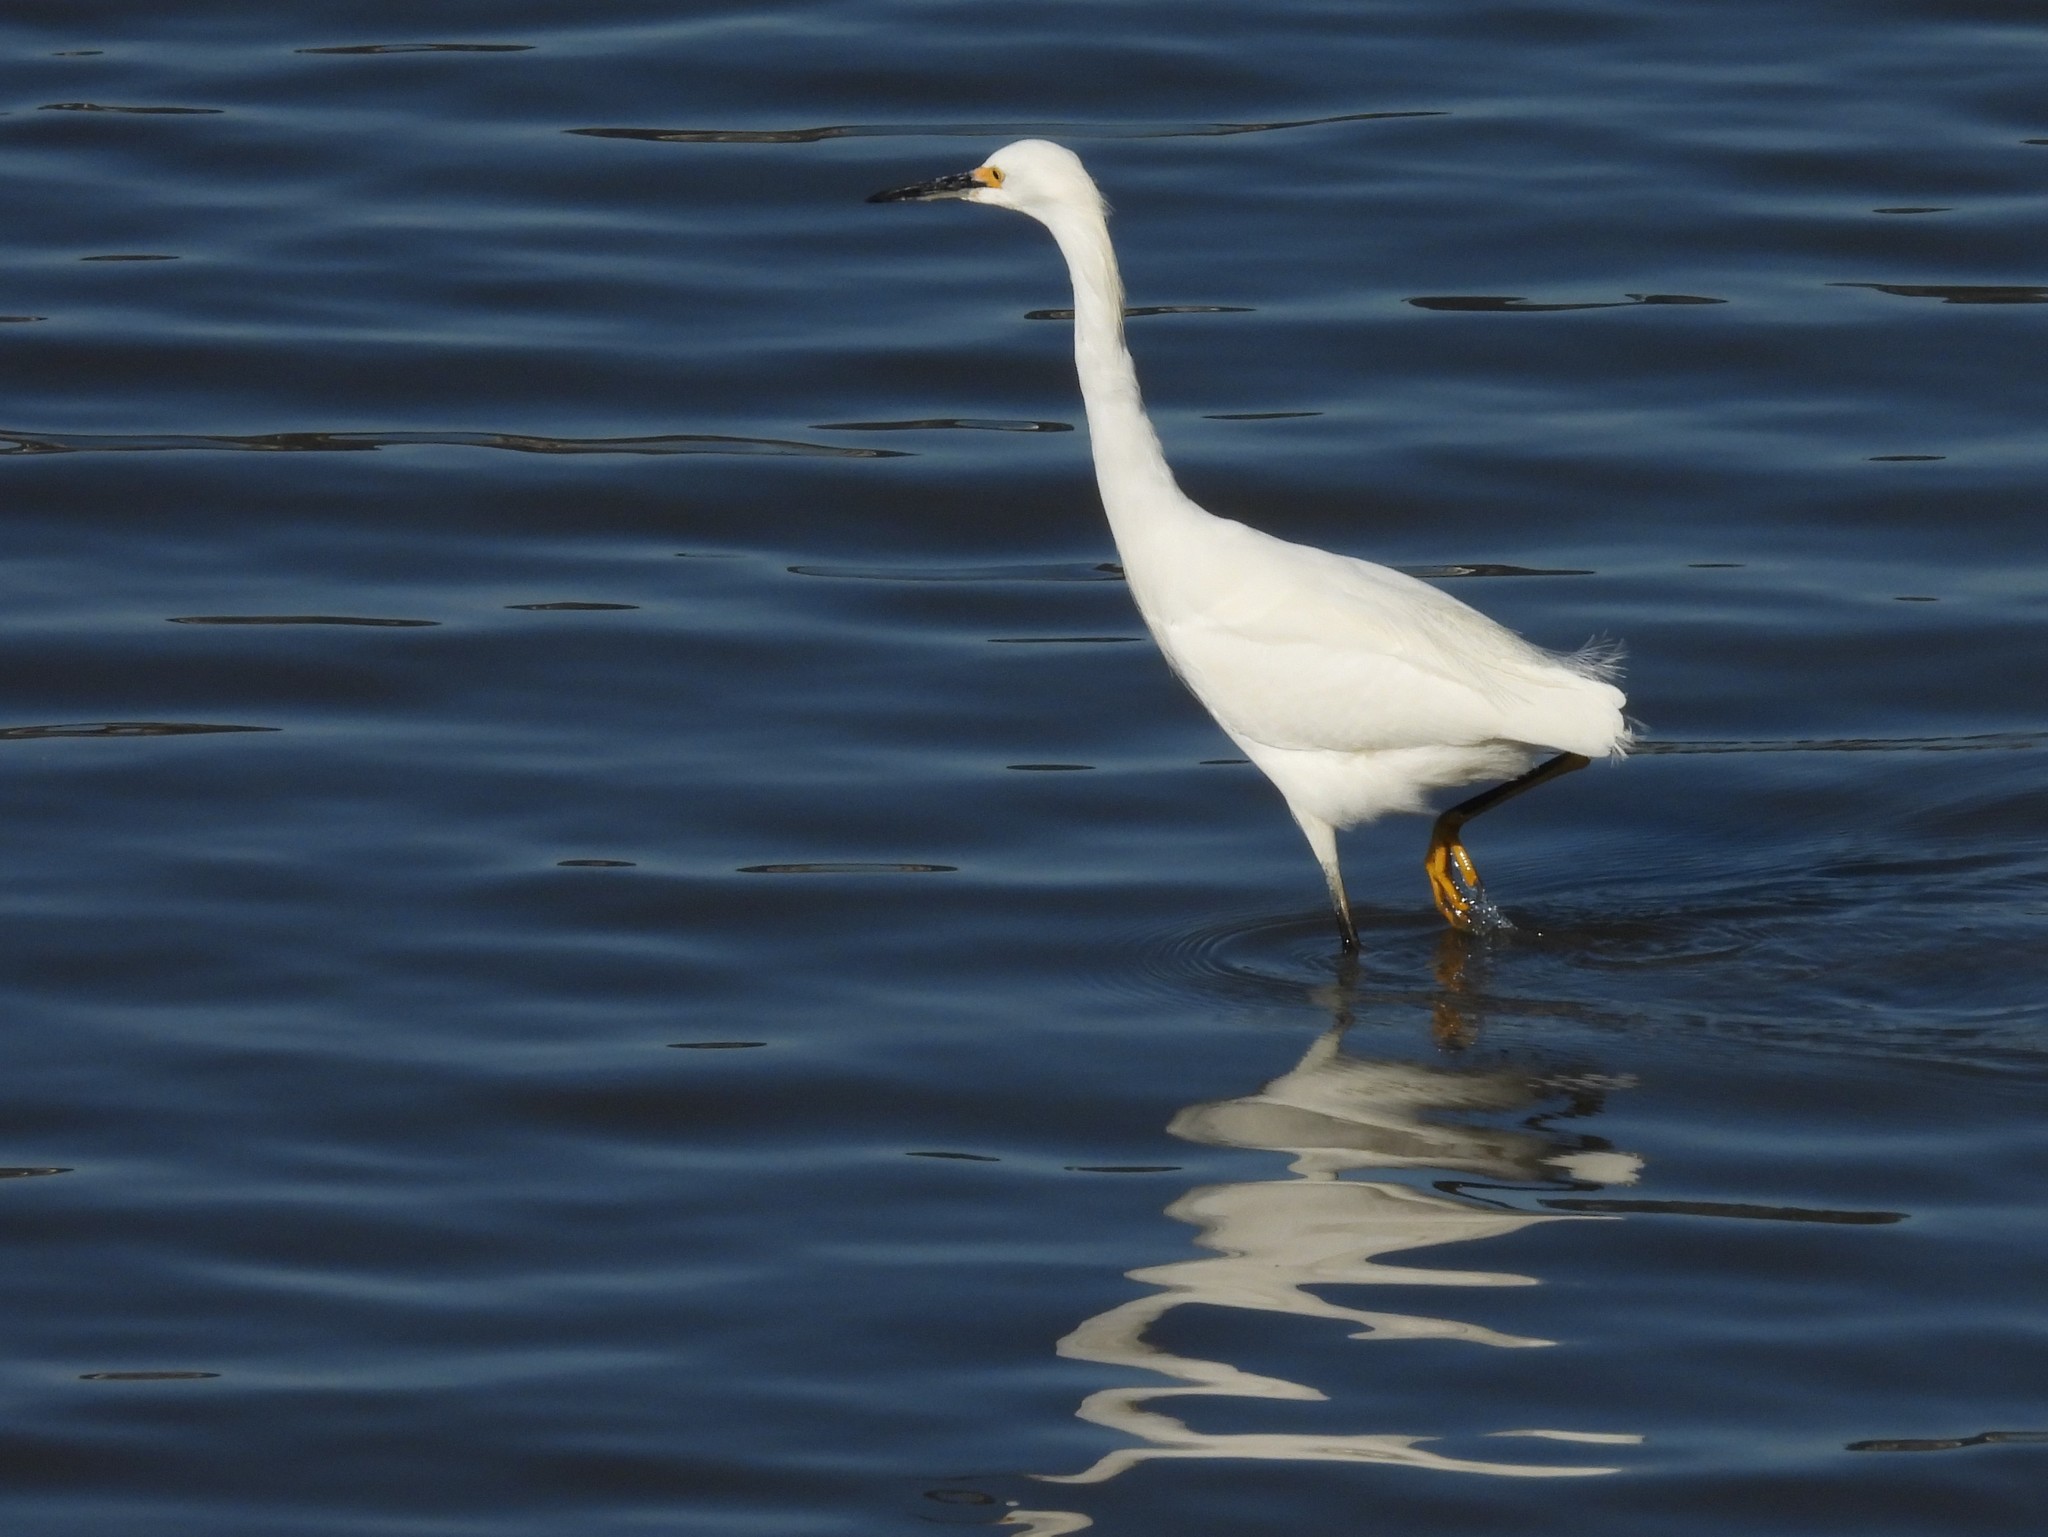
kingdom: Animalia
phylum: Chordata
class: Aves
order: Pelecaniformes
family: Ardeidae
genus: Egretta
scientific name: Egretta thula
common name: Snowy egret
